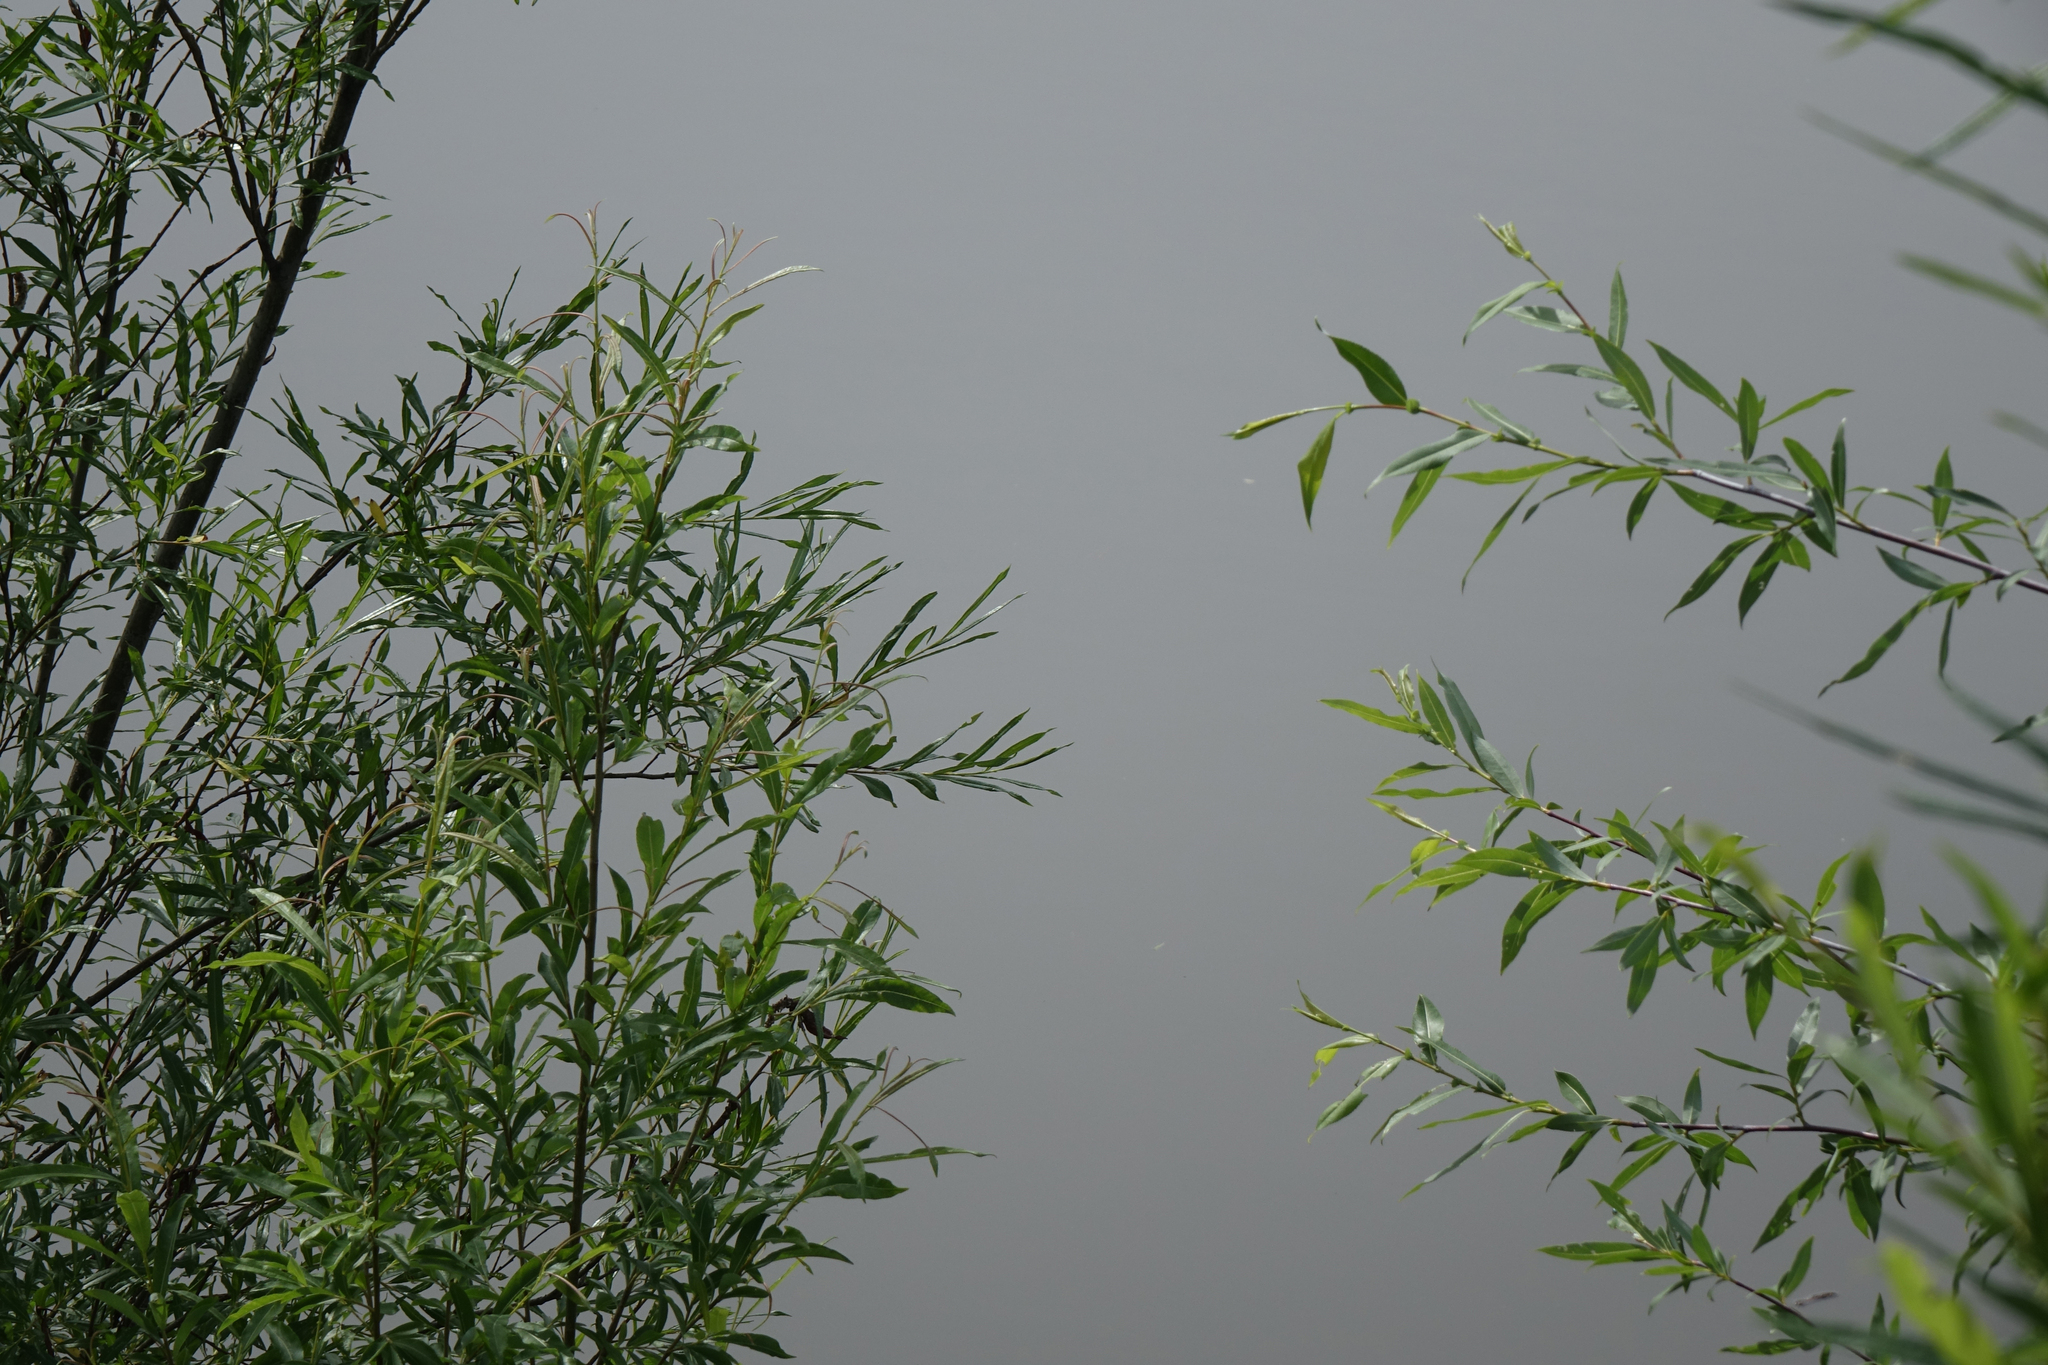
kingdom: Plantae
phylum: Tracheophyta
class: Magnoliopsida
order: Malpighiales
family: Salicaceae
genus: Salix
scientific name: Salix rorida
